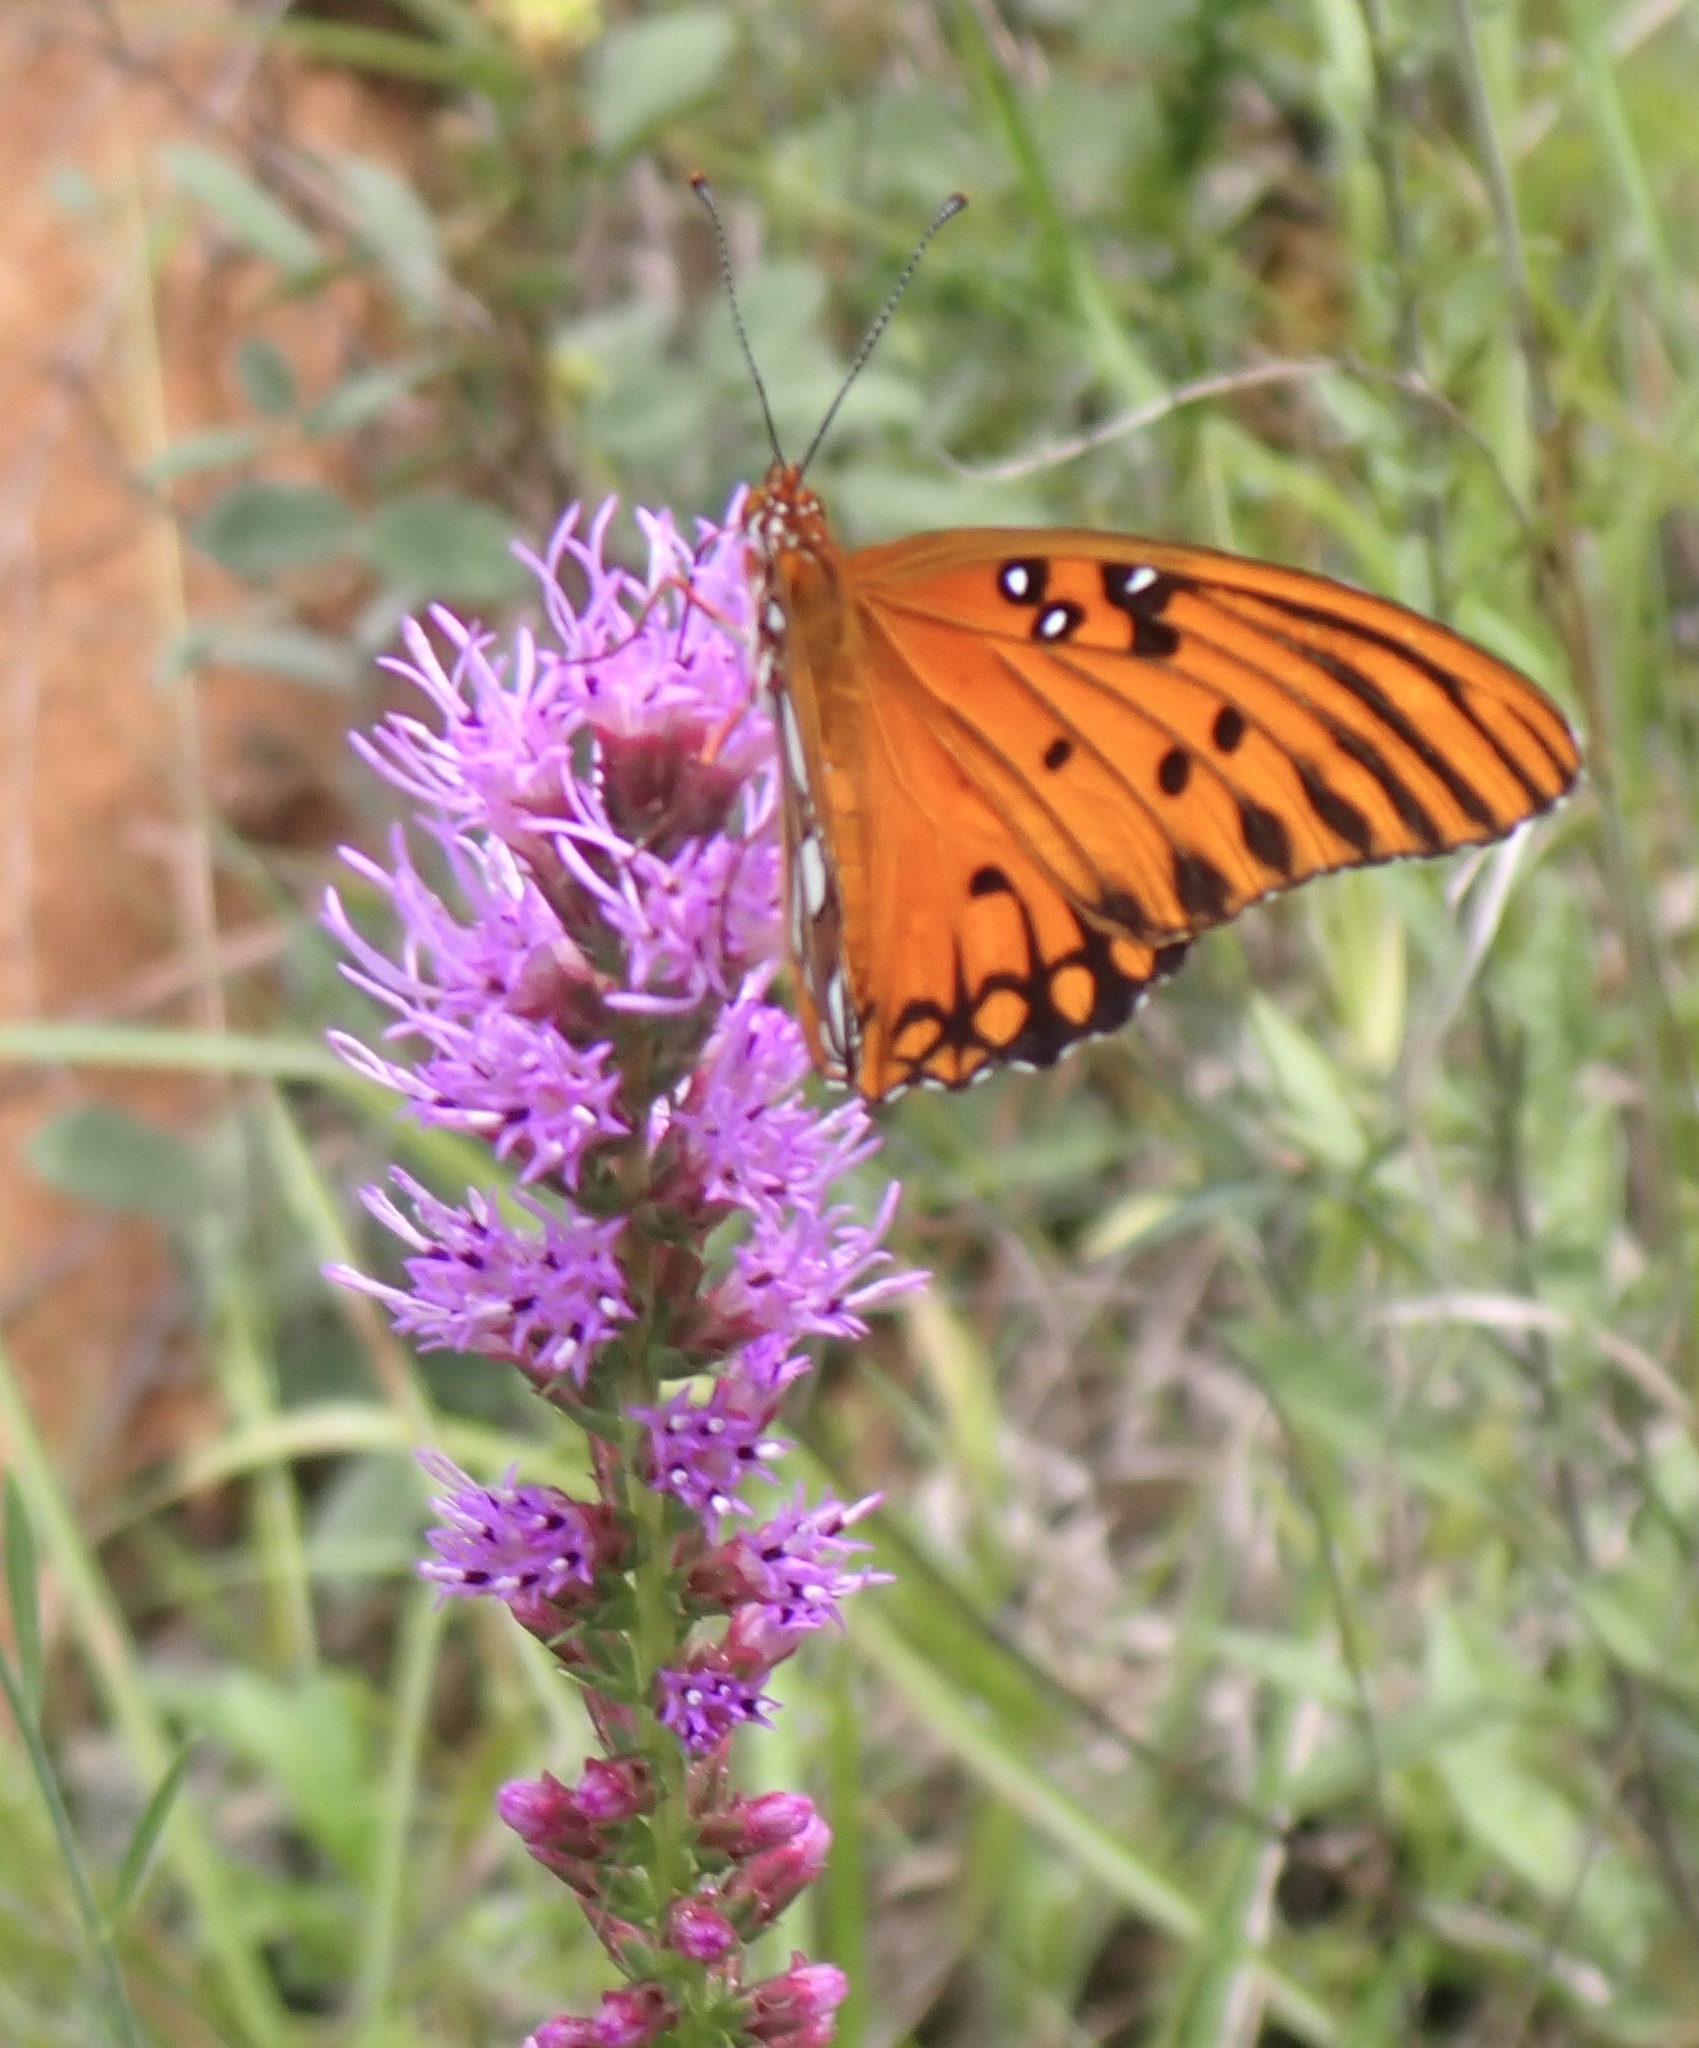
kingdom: Animalia
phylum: Arthropoda
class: Insecta
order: Lepidoptera
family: Nymphalidae
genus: Dione
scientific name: Dione vanillae
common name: Gulf fritillary
